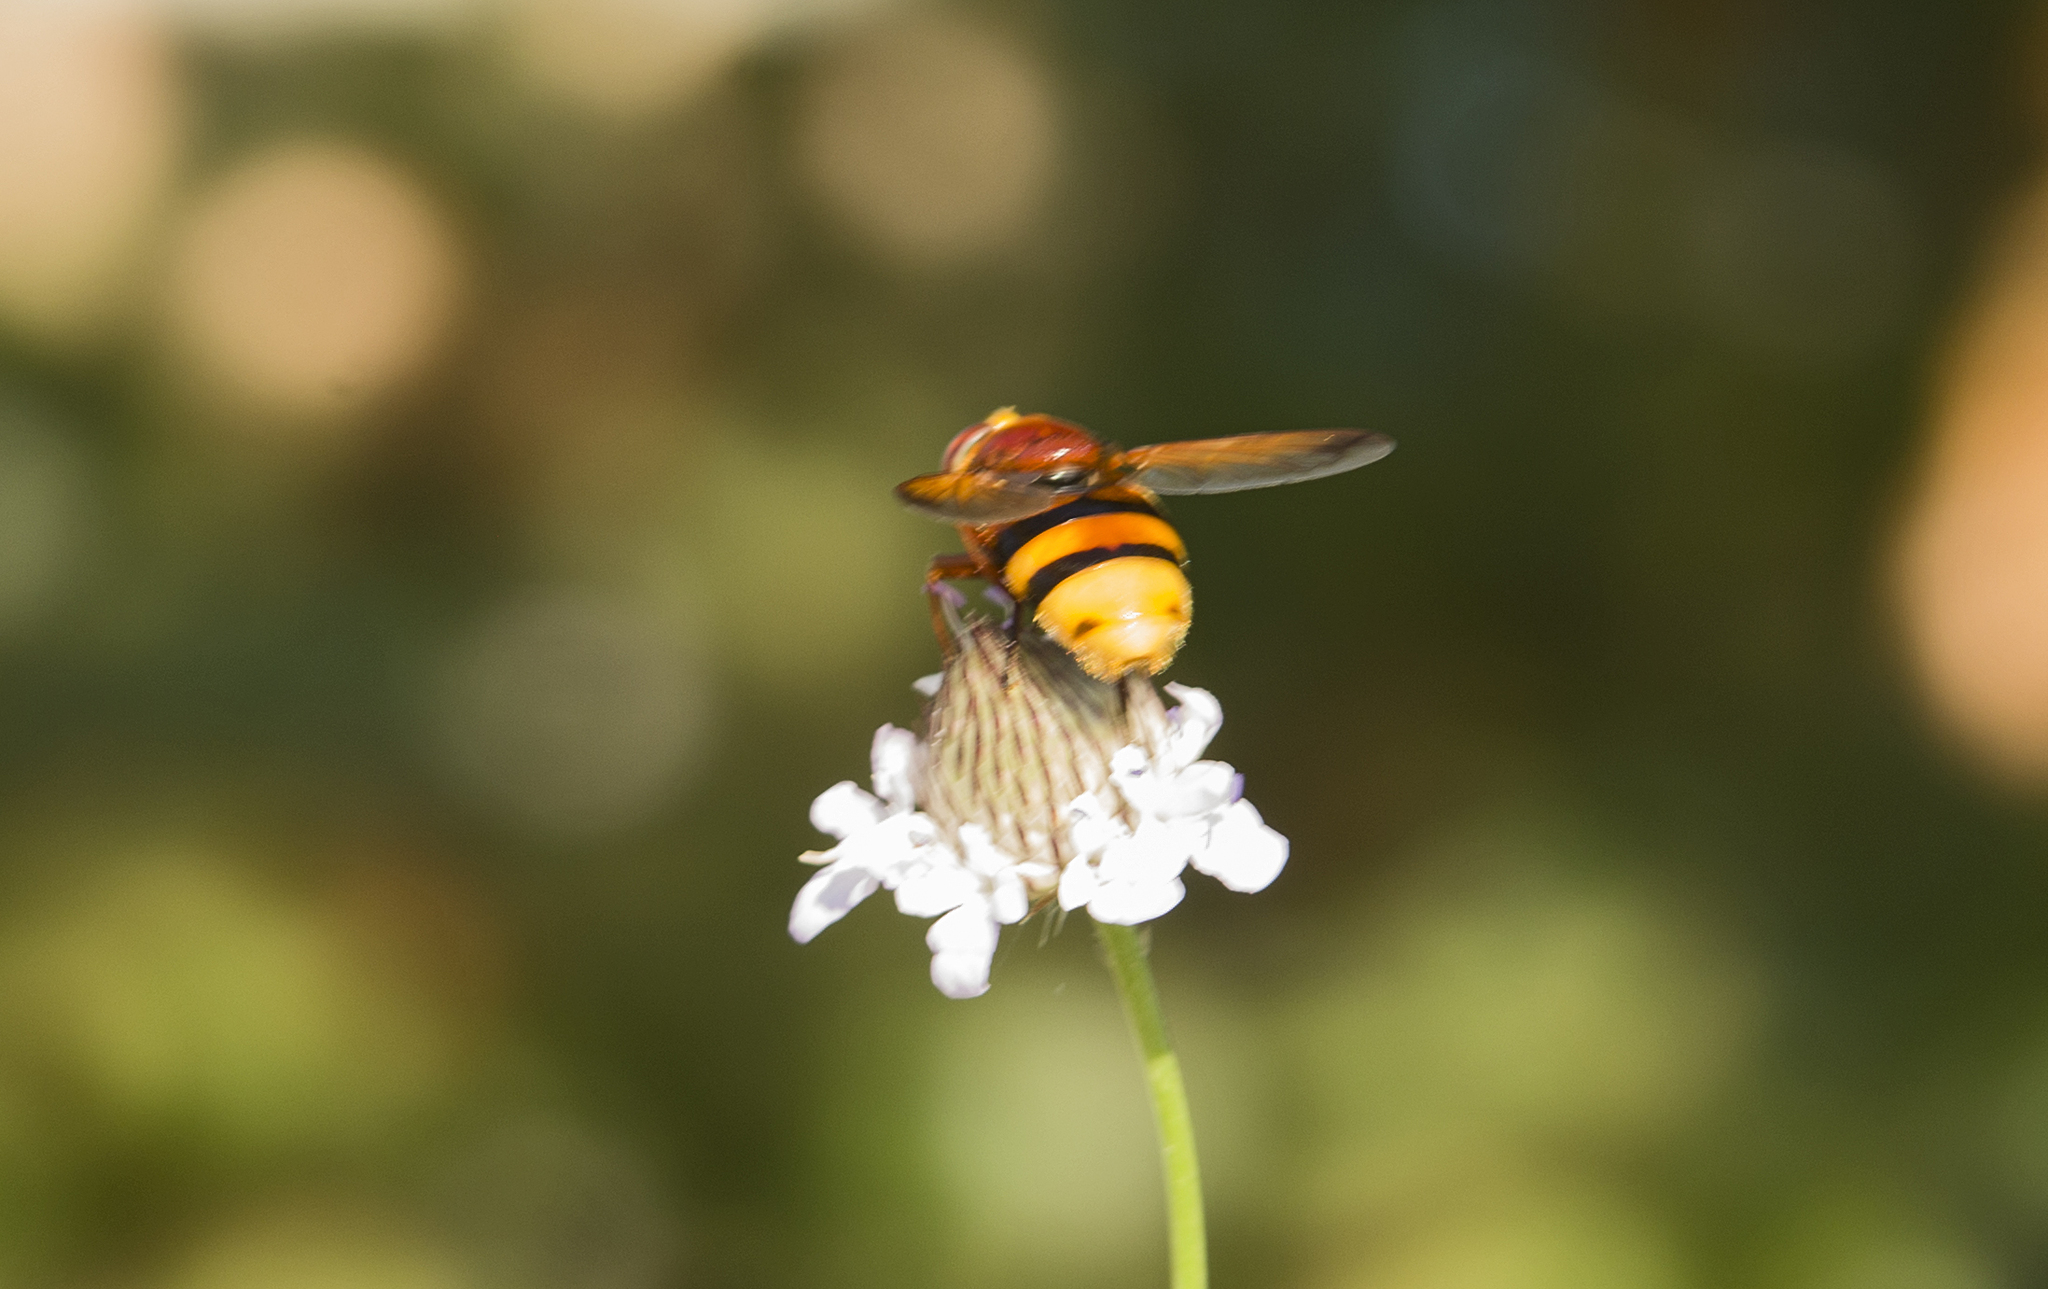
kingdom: Animalia
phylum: Arthropoda
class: Insecta
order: Diptera
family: Syrphidae
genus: Volucella
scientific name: Volucella zonaria
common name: Hornet hoverfly
